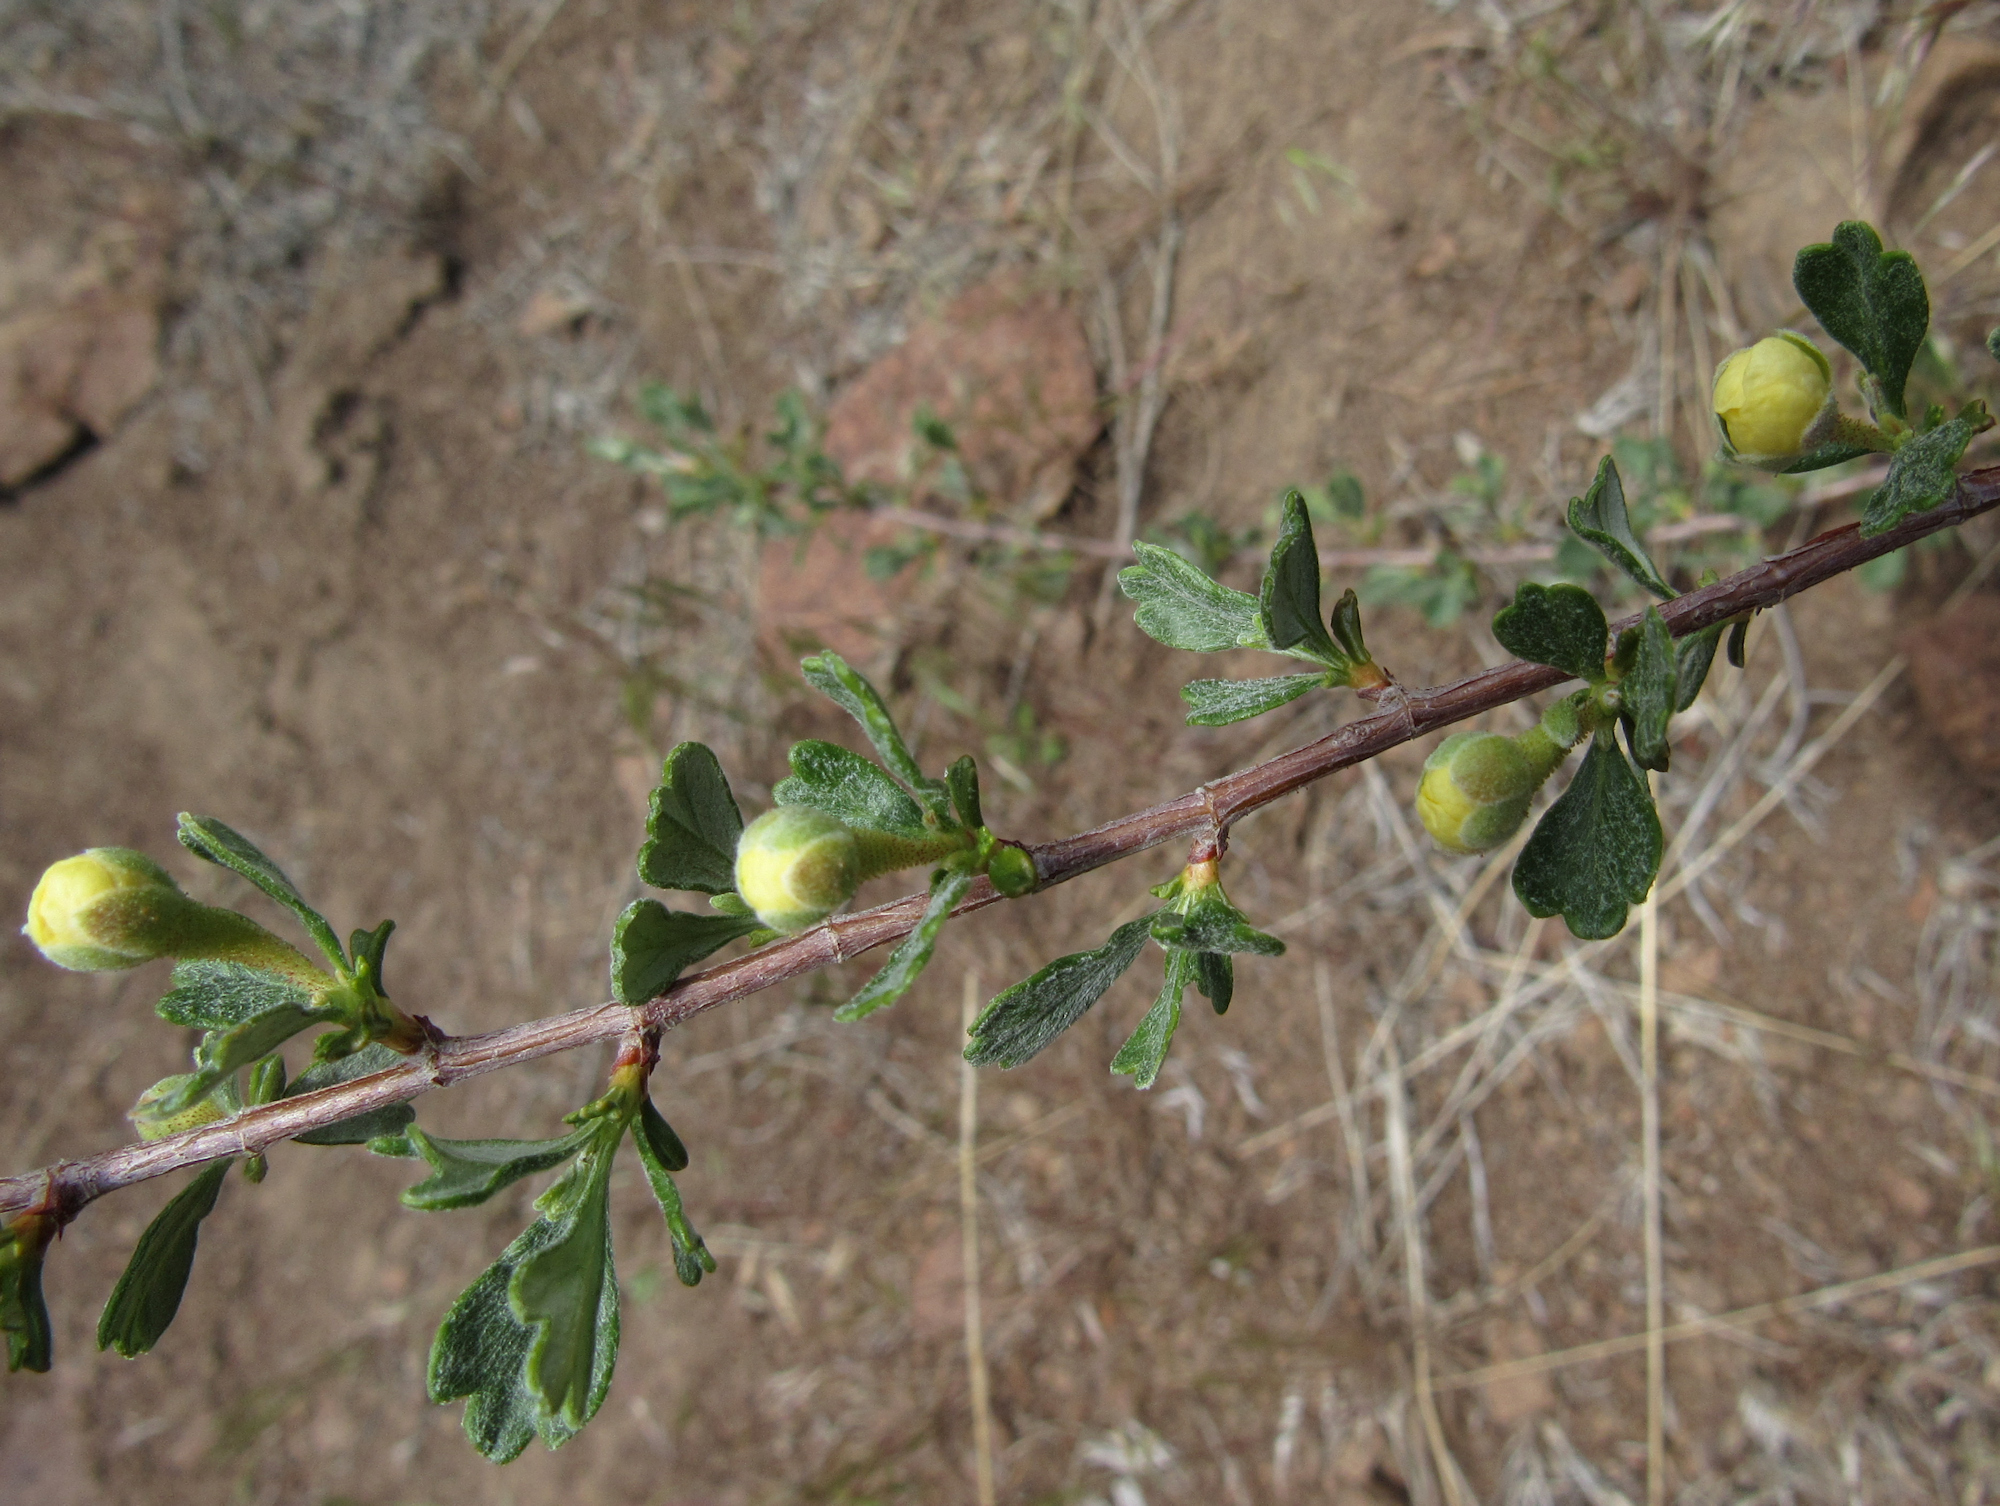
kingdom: Plantae
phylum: Tracheophyta
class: Magnoliopsida
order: Rosales
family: Rosaceae
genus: Purshia
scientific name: Purshia tridentata
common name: Antelope bitterbrush
